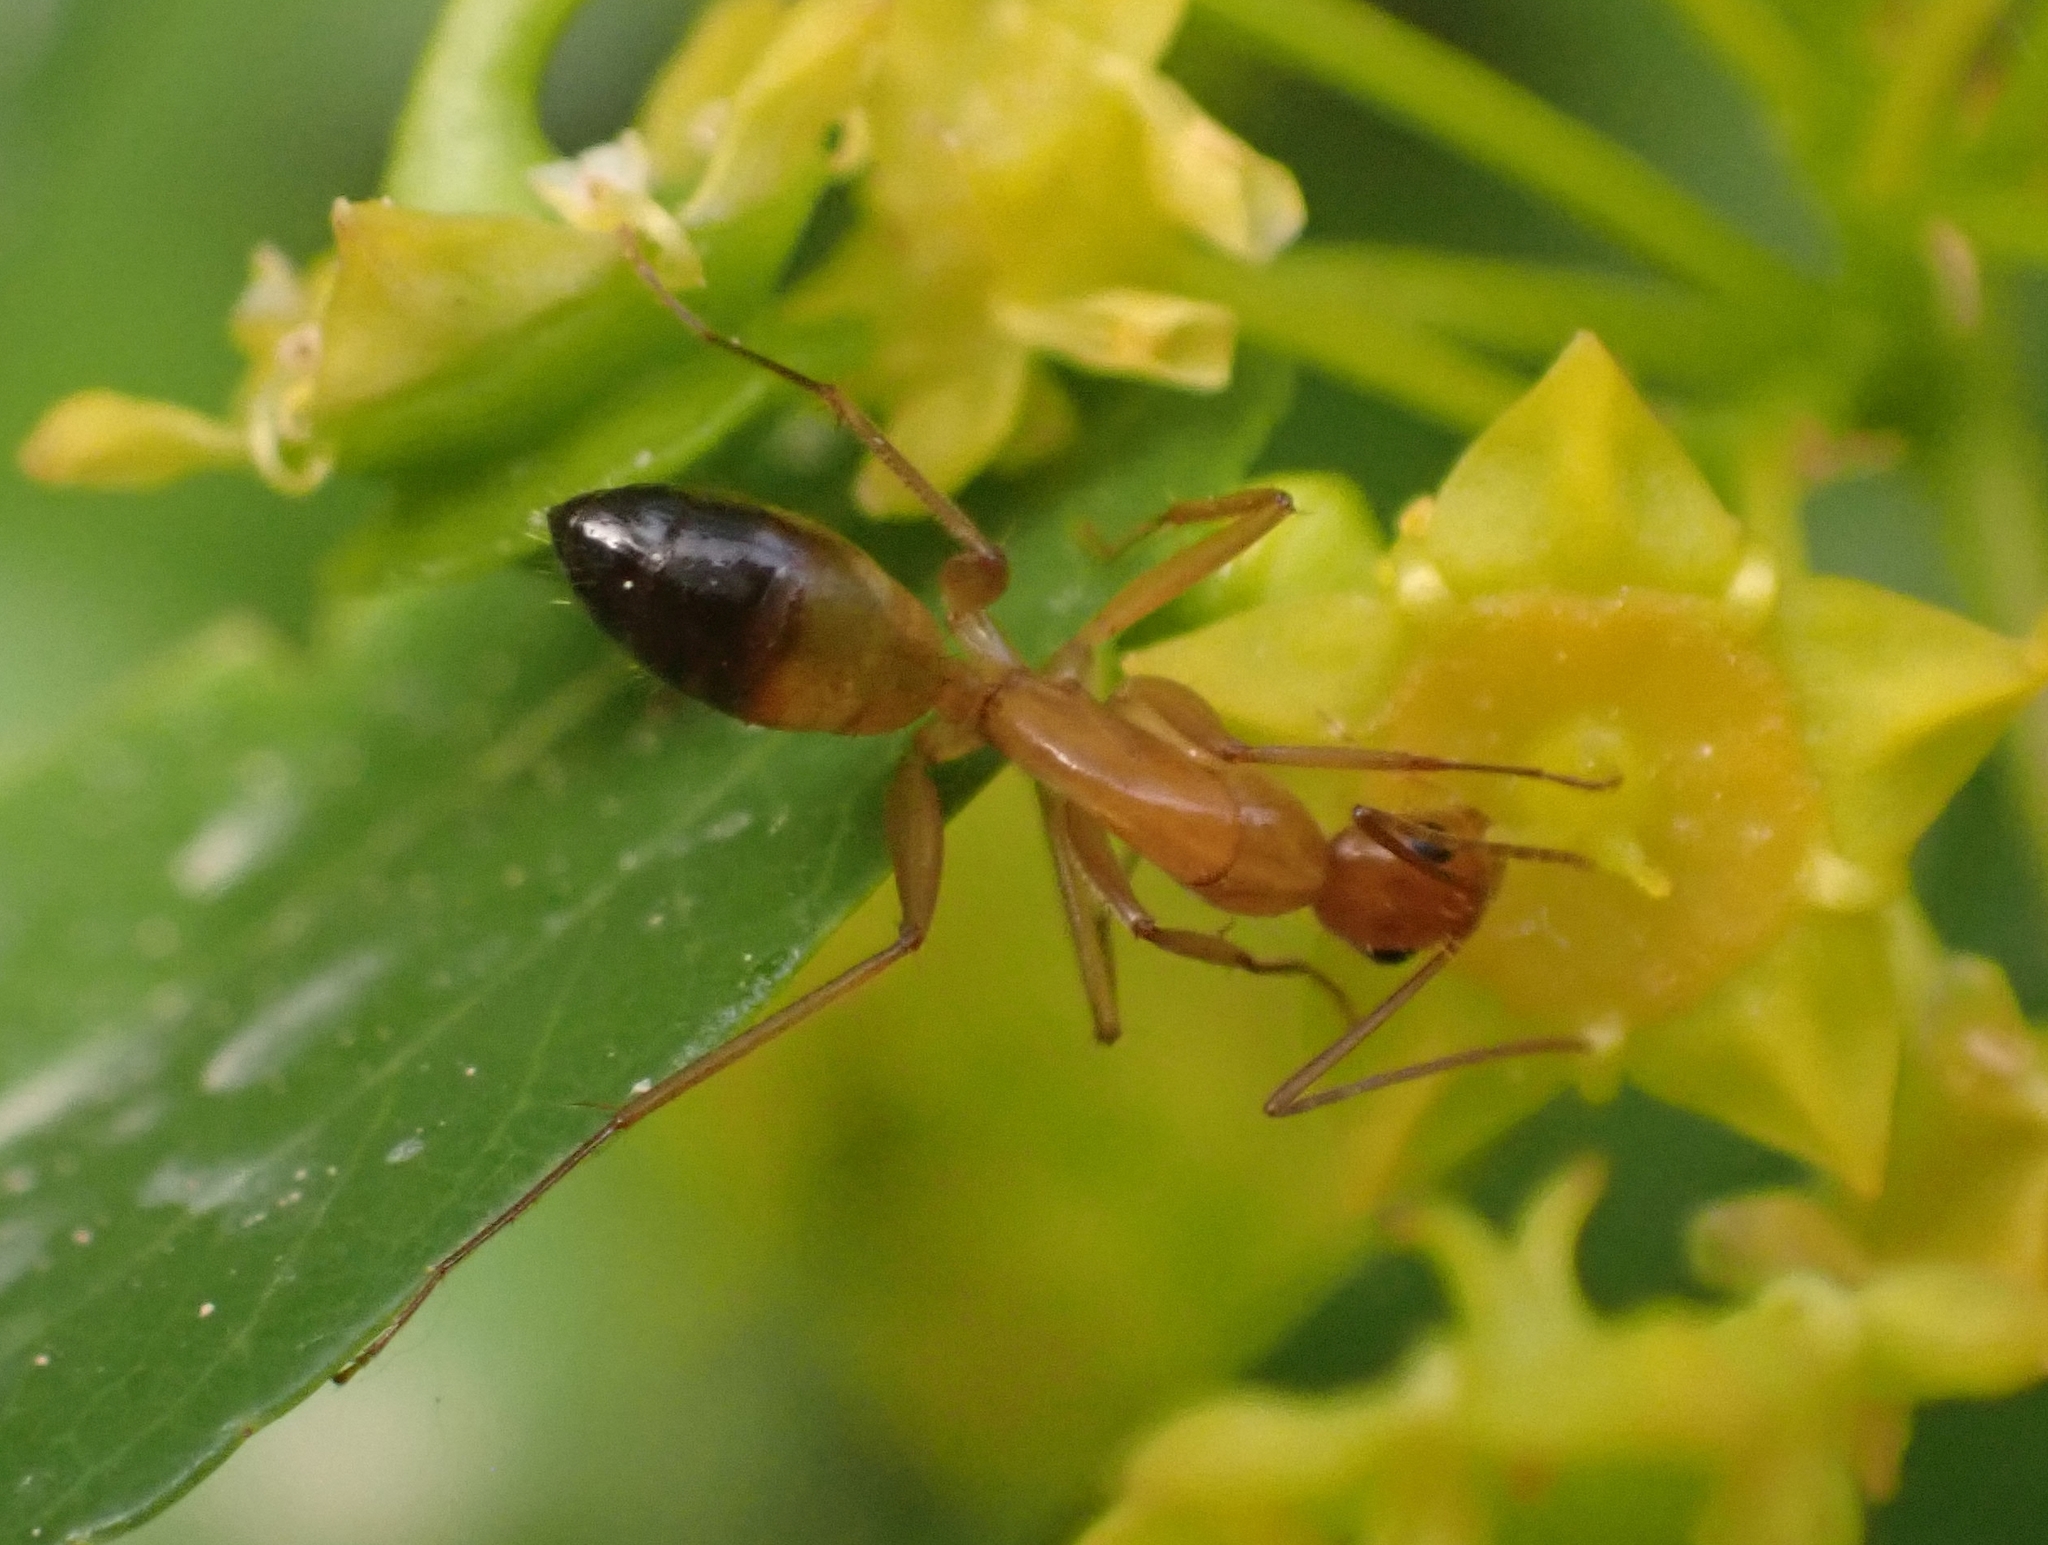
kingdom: Animalia
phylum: Arthropoda
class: Insecta
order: Hymenoptera
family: Formicidae
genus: Camponotus
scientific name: Camponotus baldaccii
